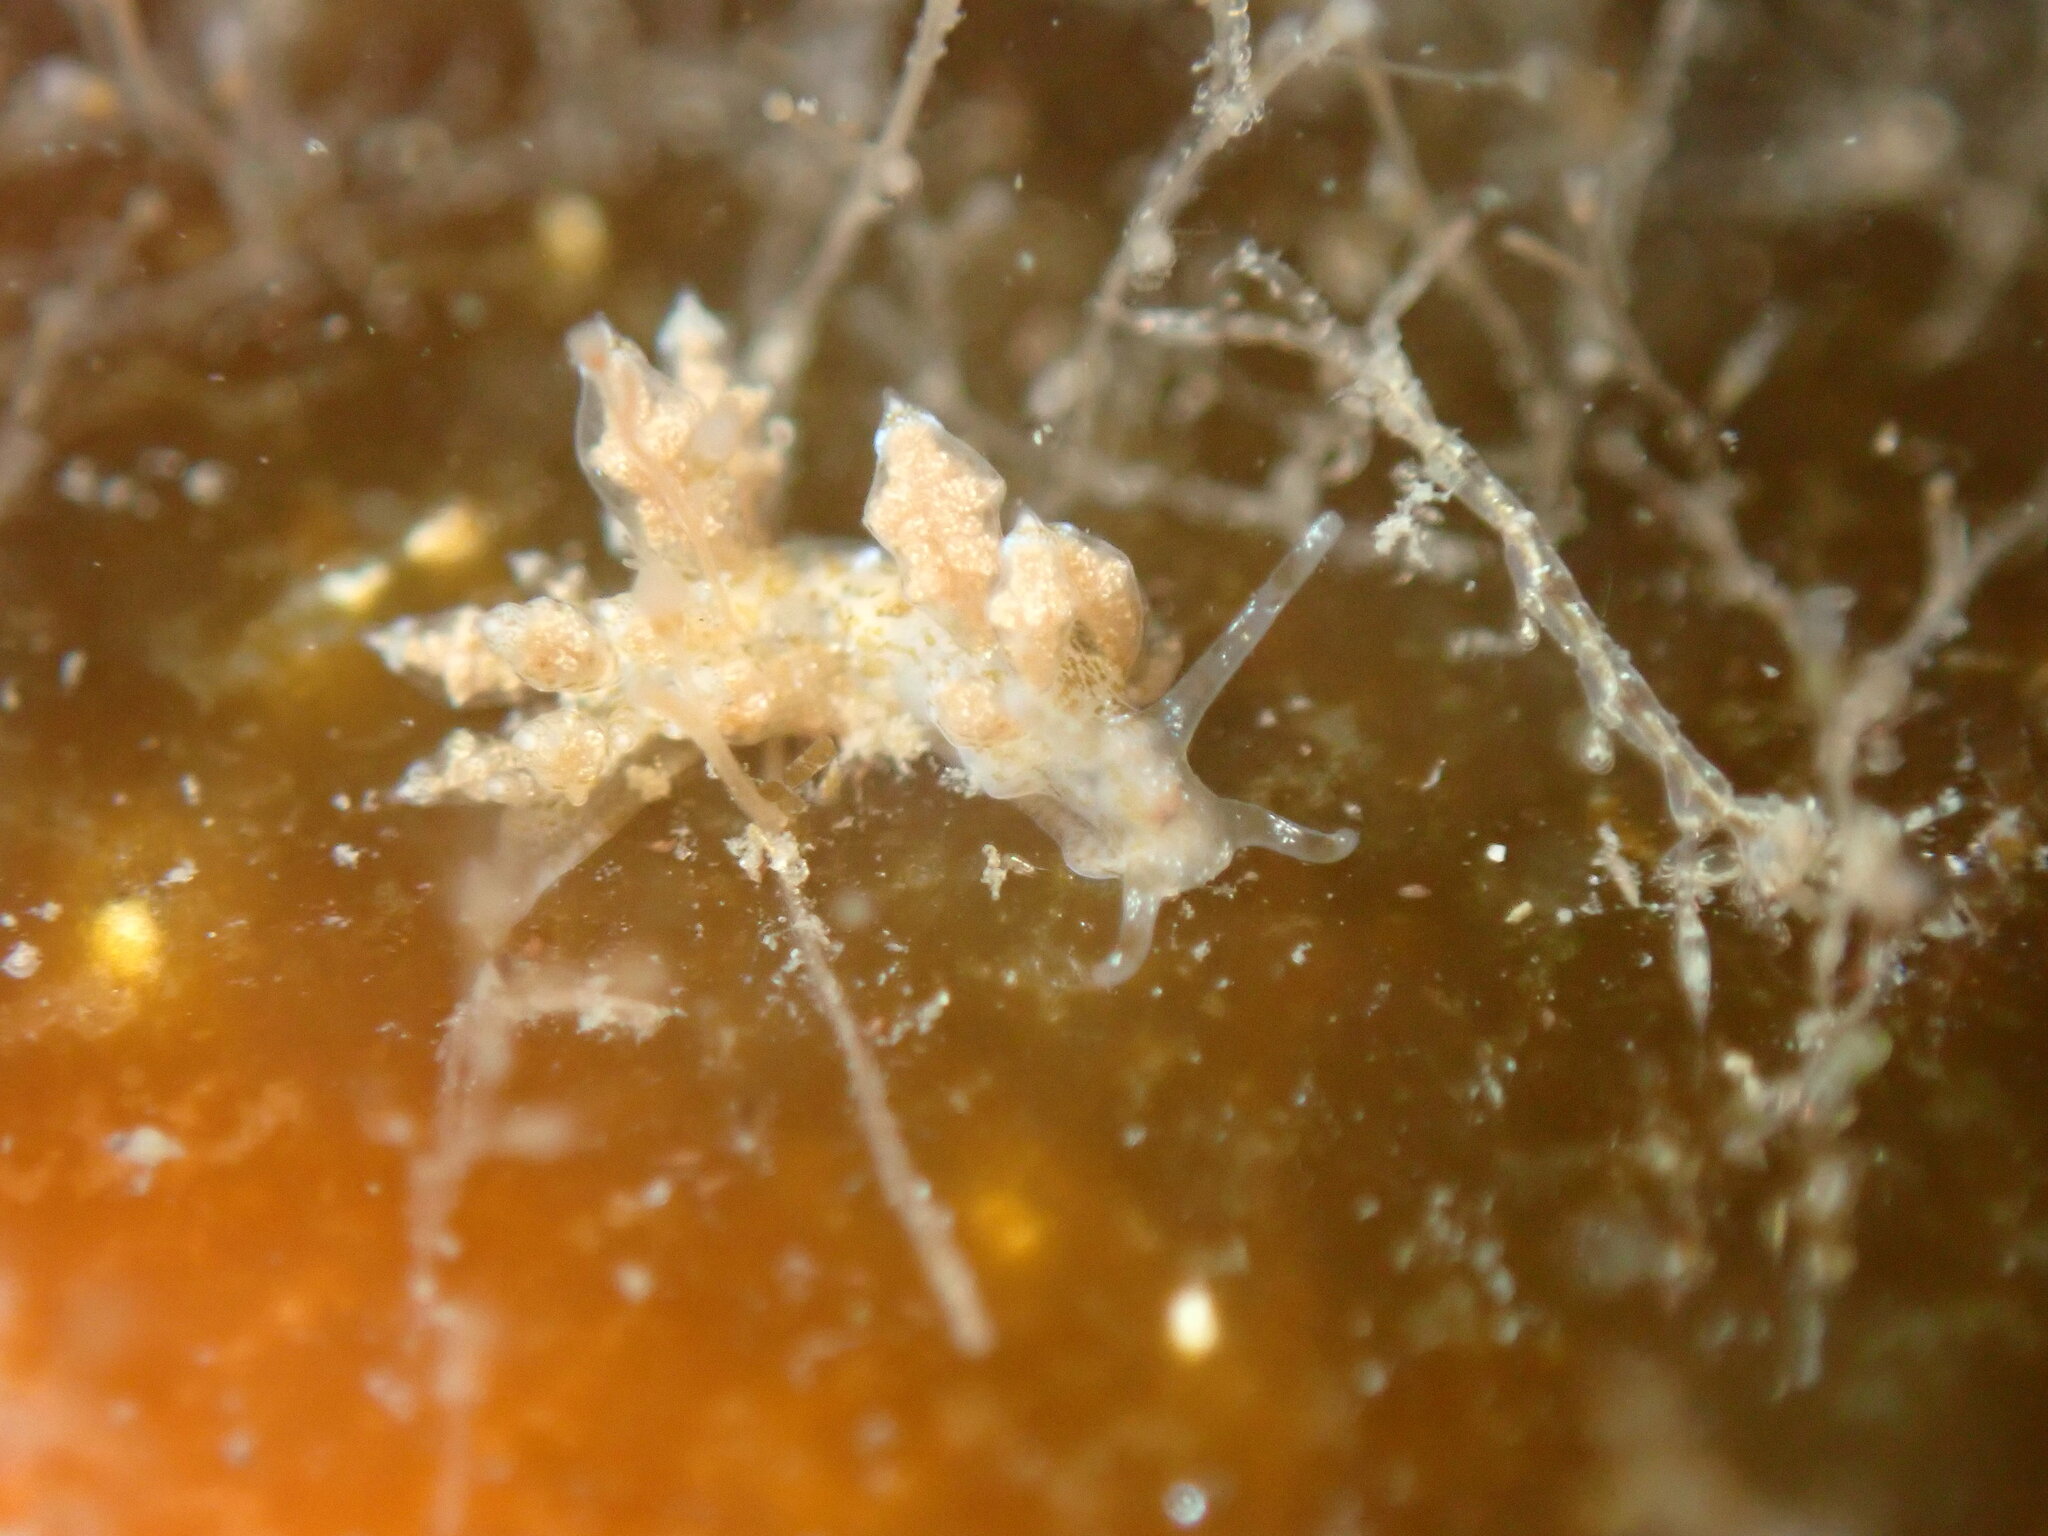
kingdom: Animalia
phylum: Mollusca
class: Gastropoda
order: Nudibranchia
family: Eubranchidae
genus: Eubranchus
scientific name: Eubranchus rustyus
